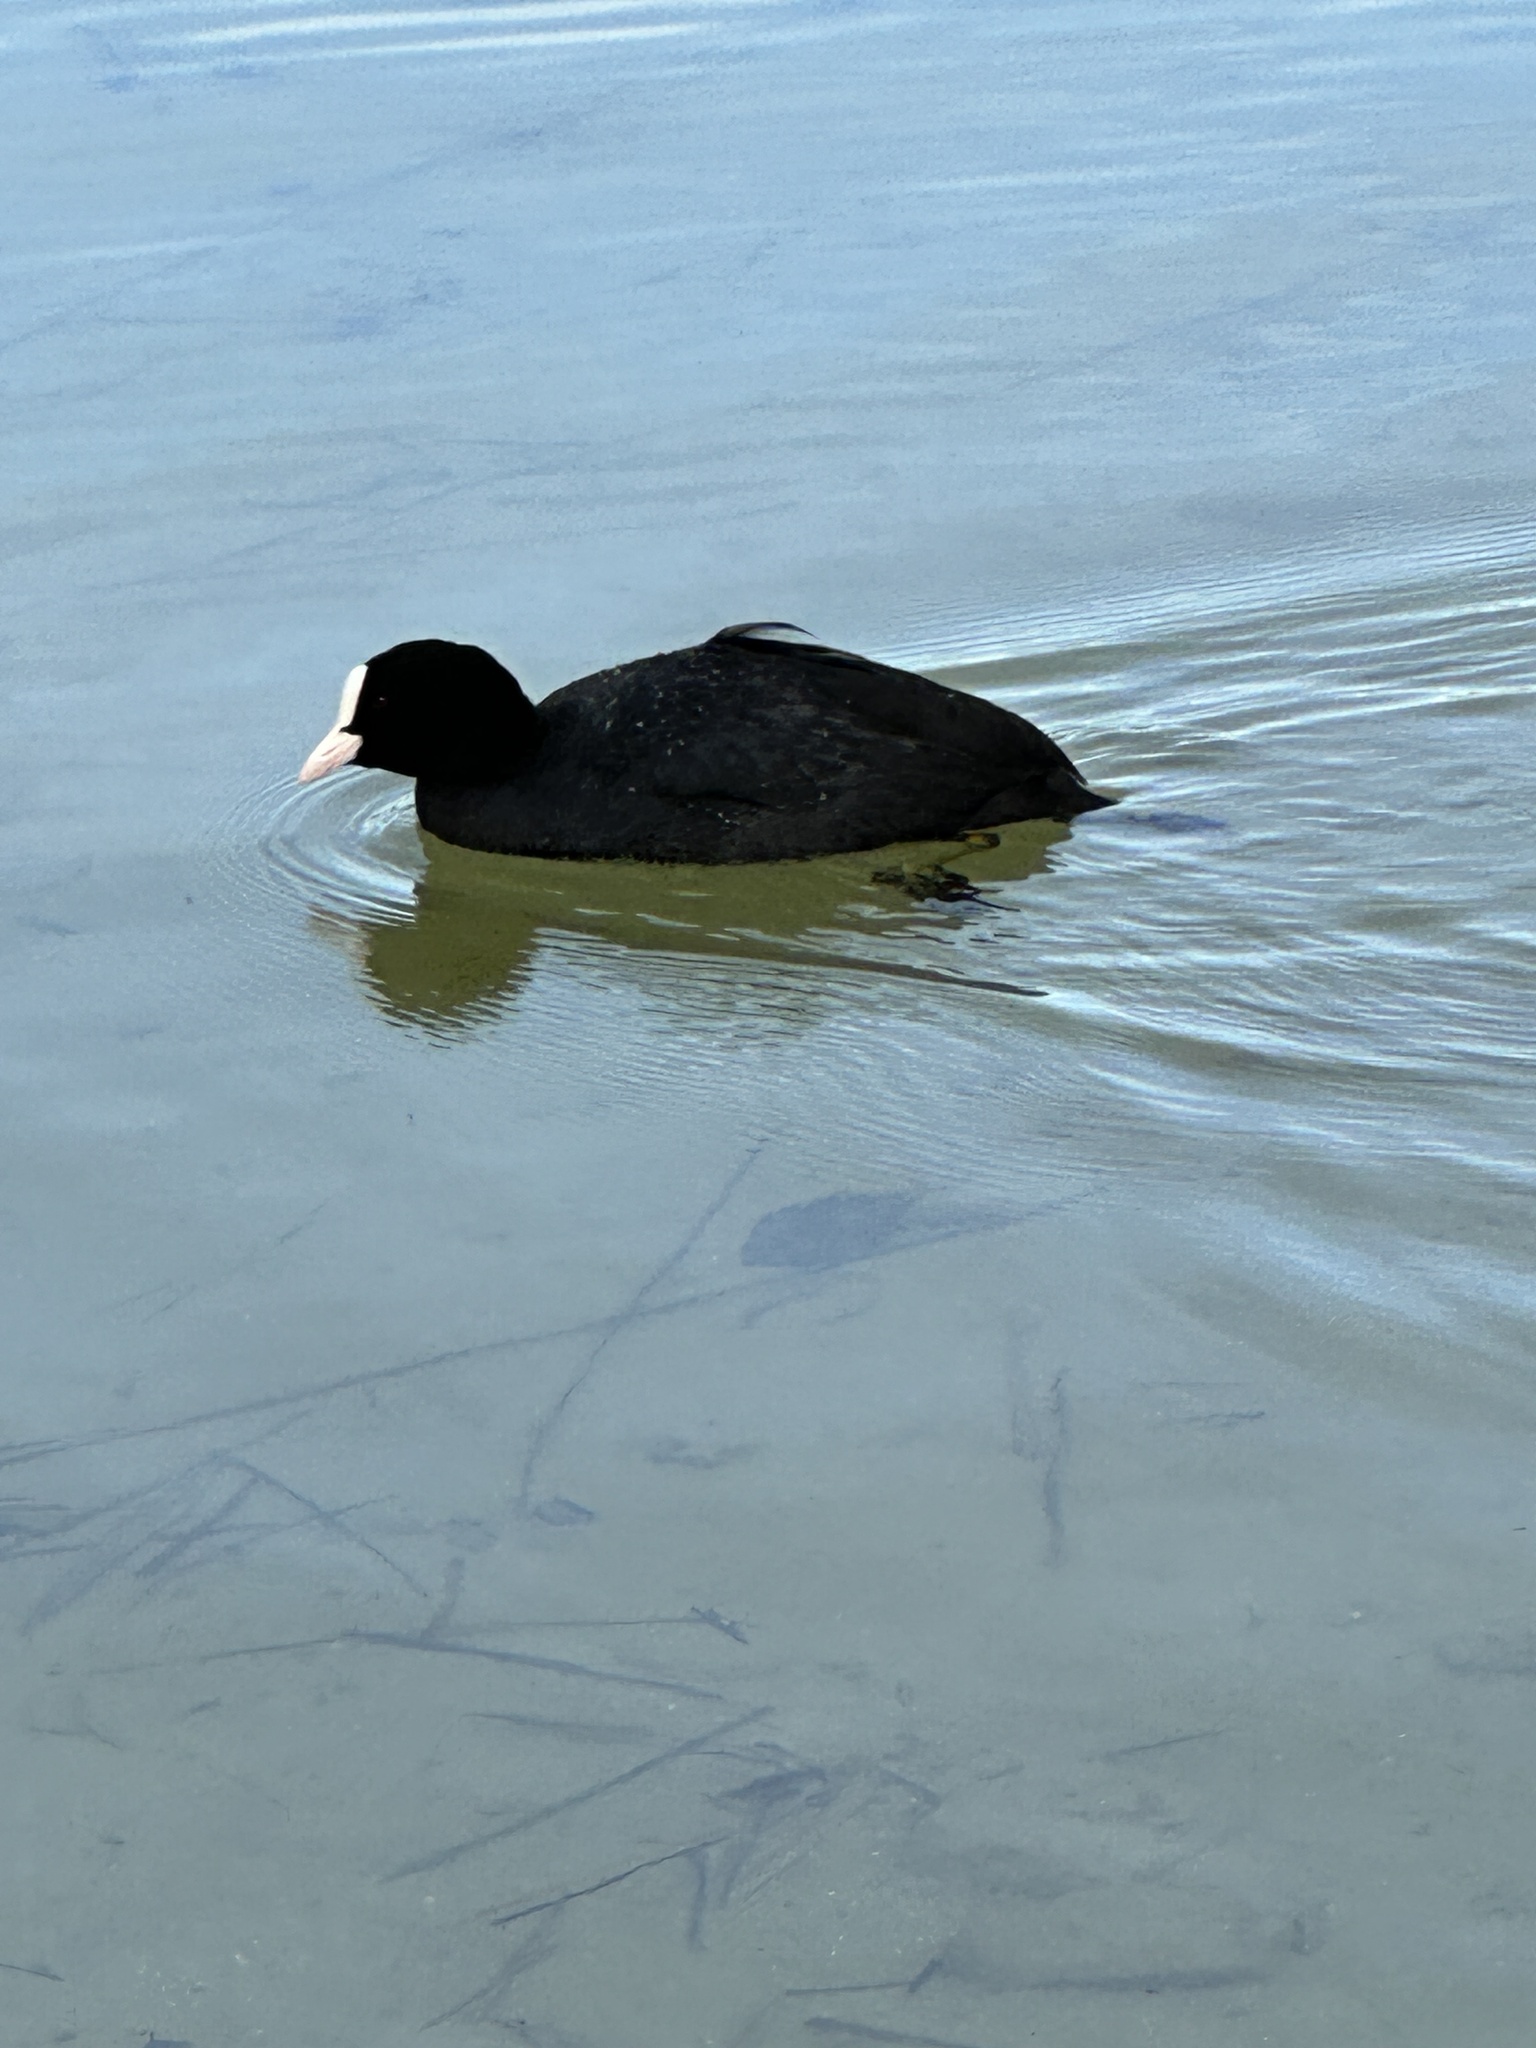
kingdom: Animalia
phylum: Chordata
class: Aves
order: Gruiformes
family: Rallidae
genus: Fulica
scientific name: Fulica atra
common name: Eurasian coot
